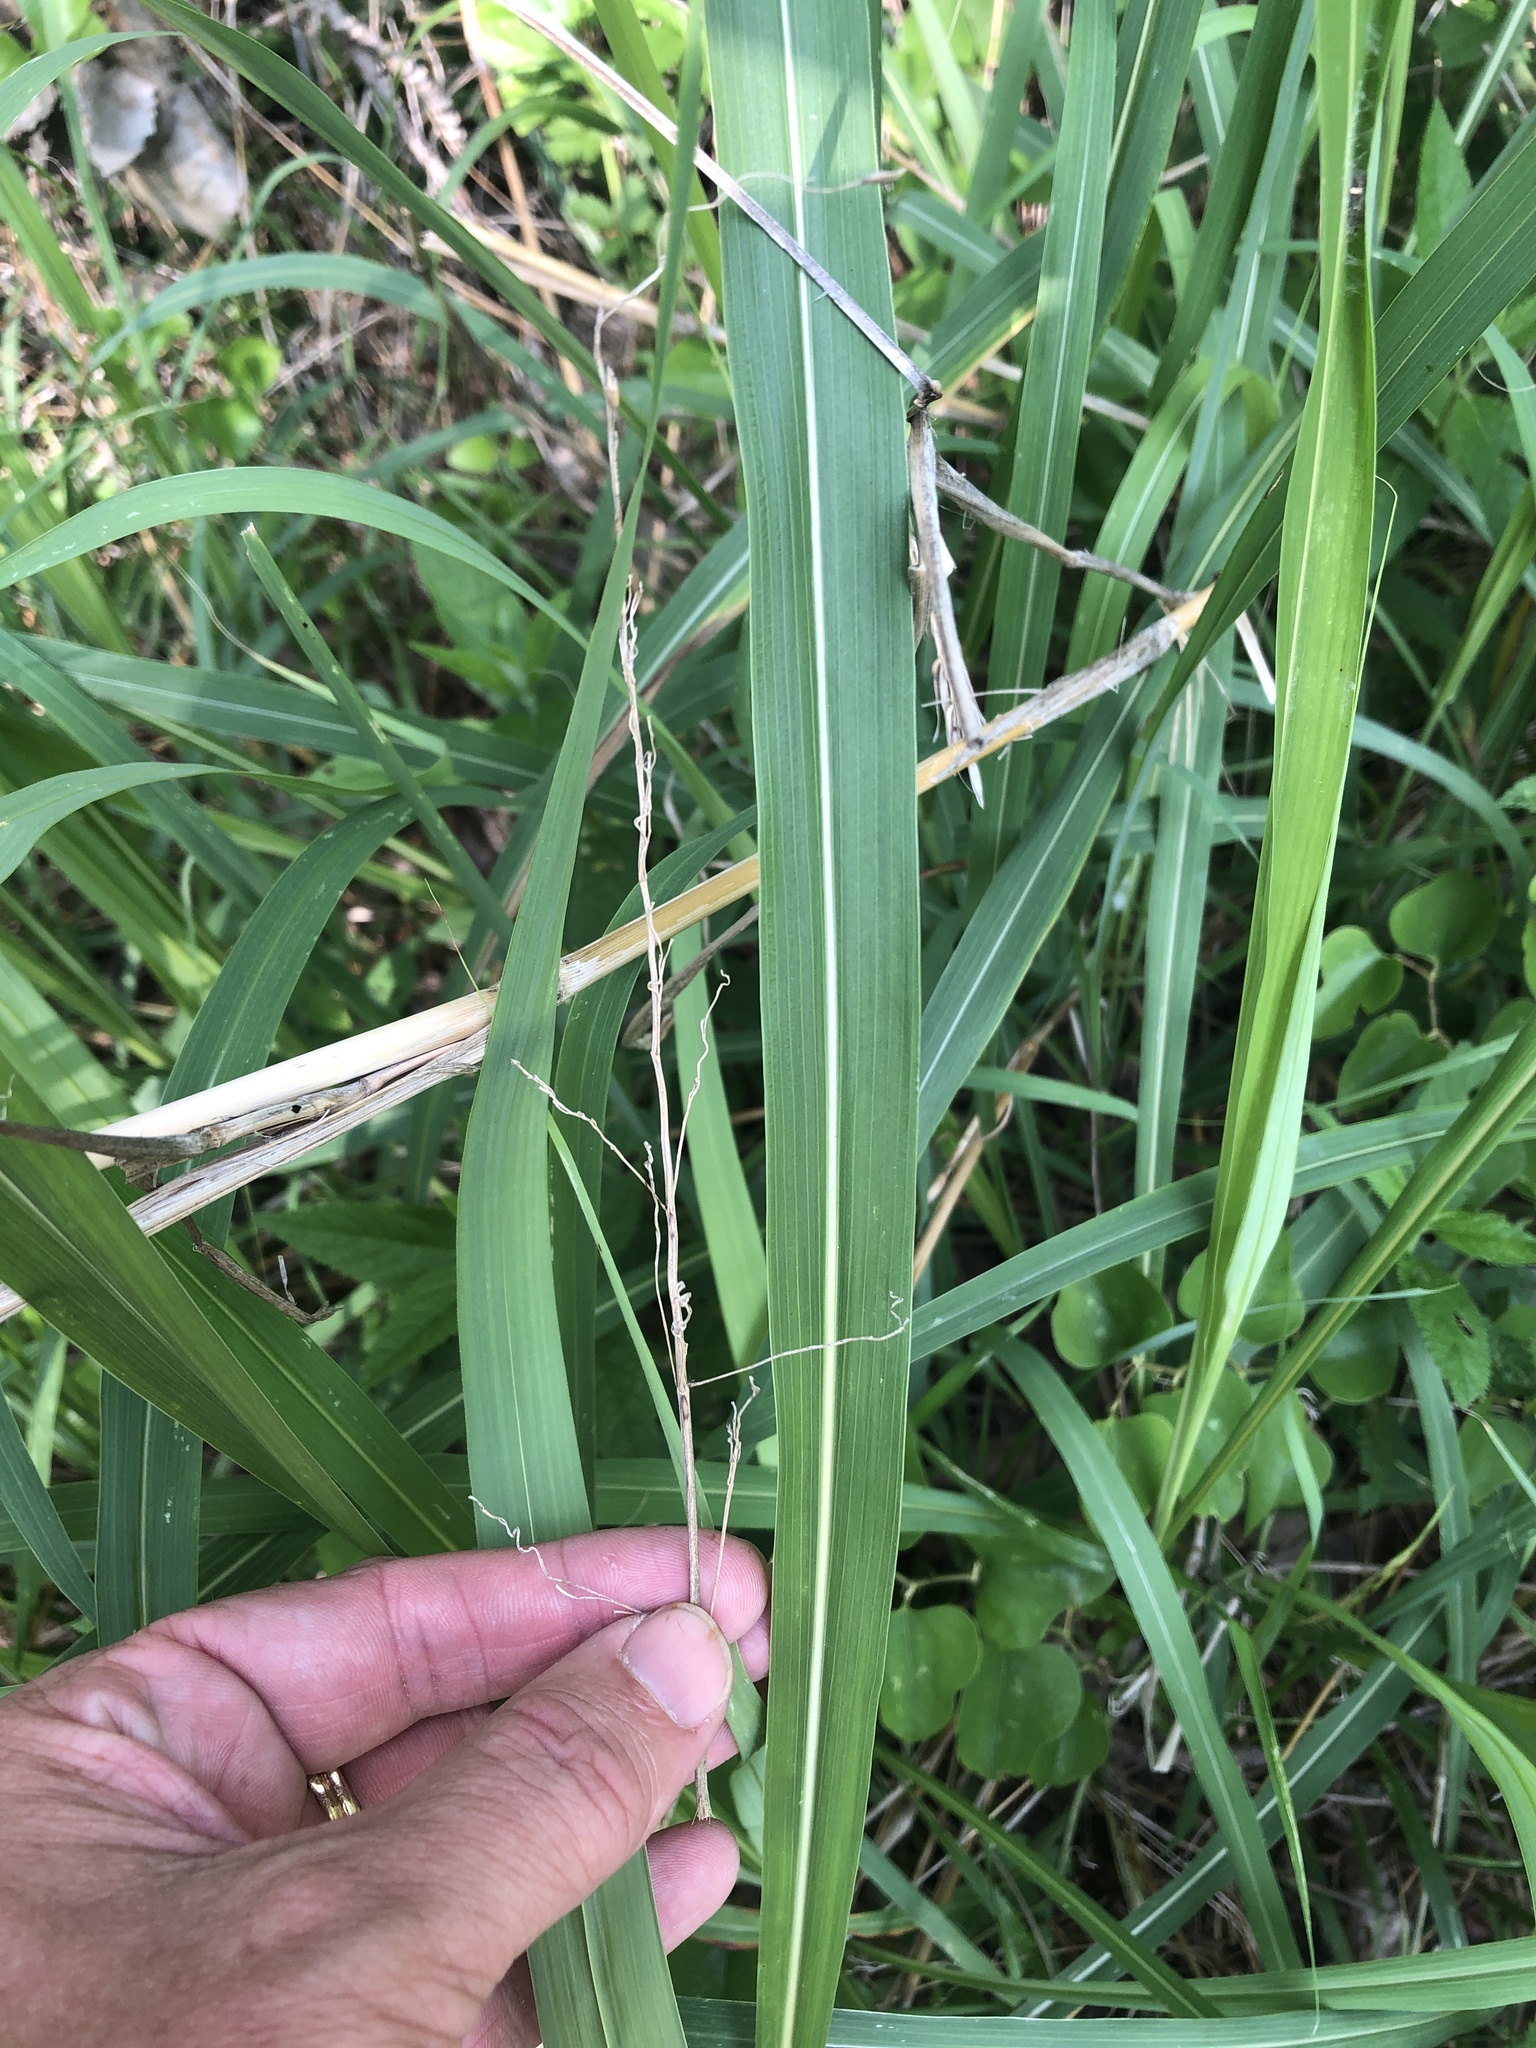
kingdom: Plantae
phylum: Tracheophyta
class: Liliopsida
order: Poales
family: Poaceae
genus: Sorghum
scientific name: Sorghum halepense
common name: Johnson-grass
